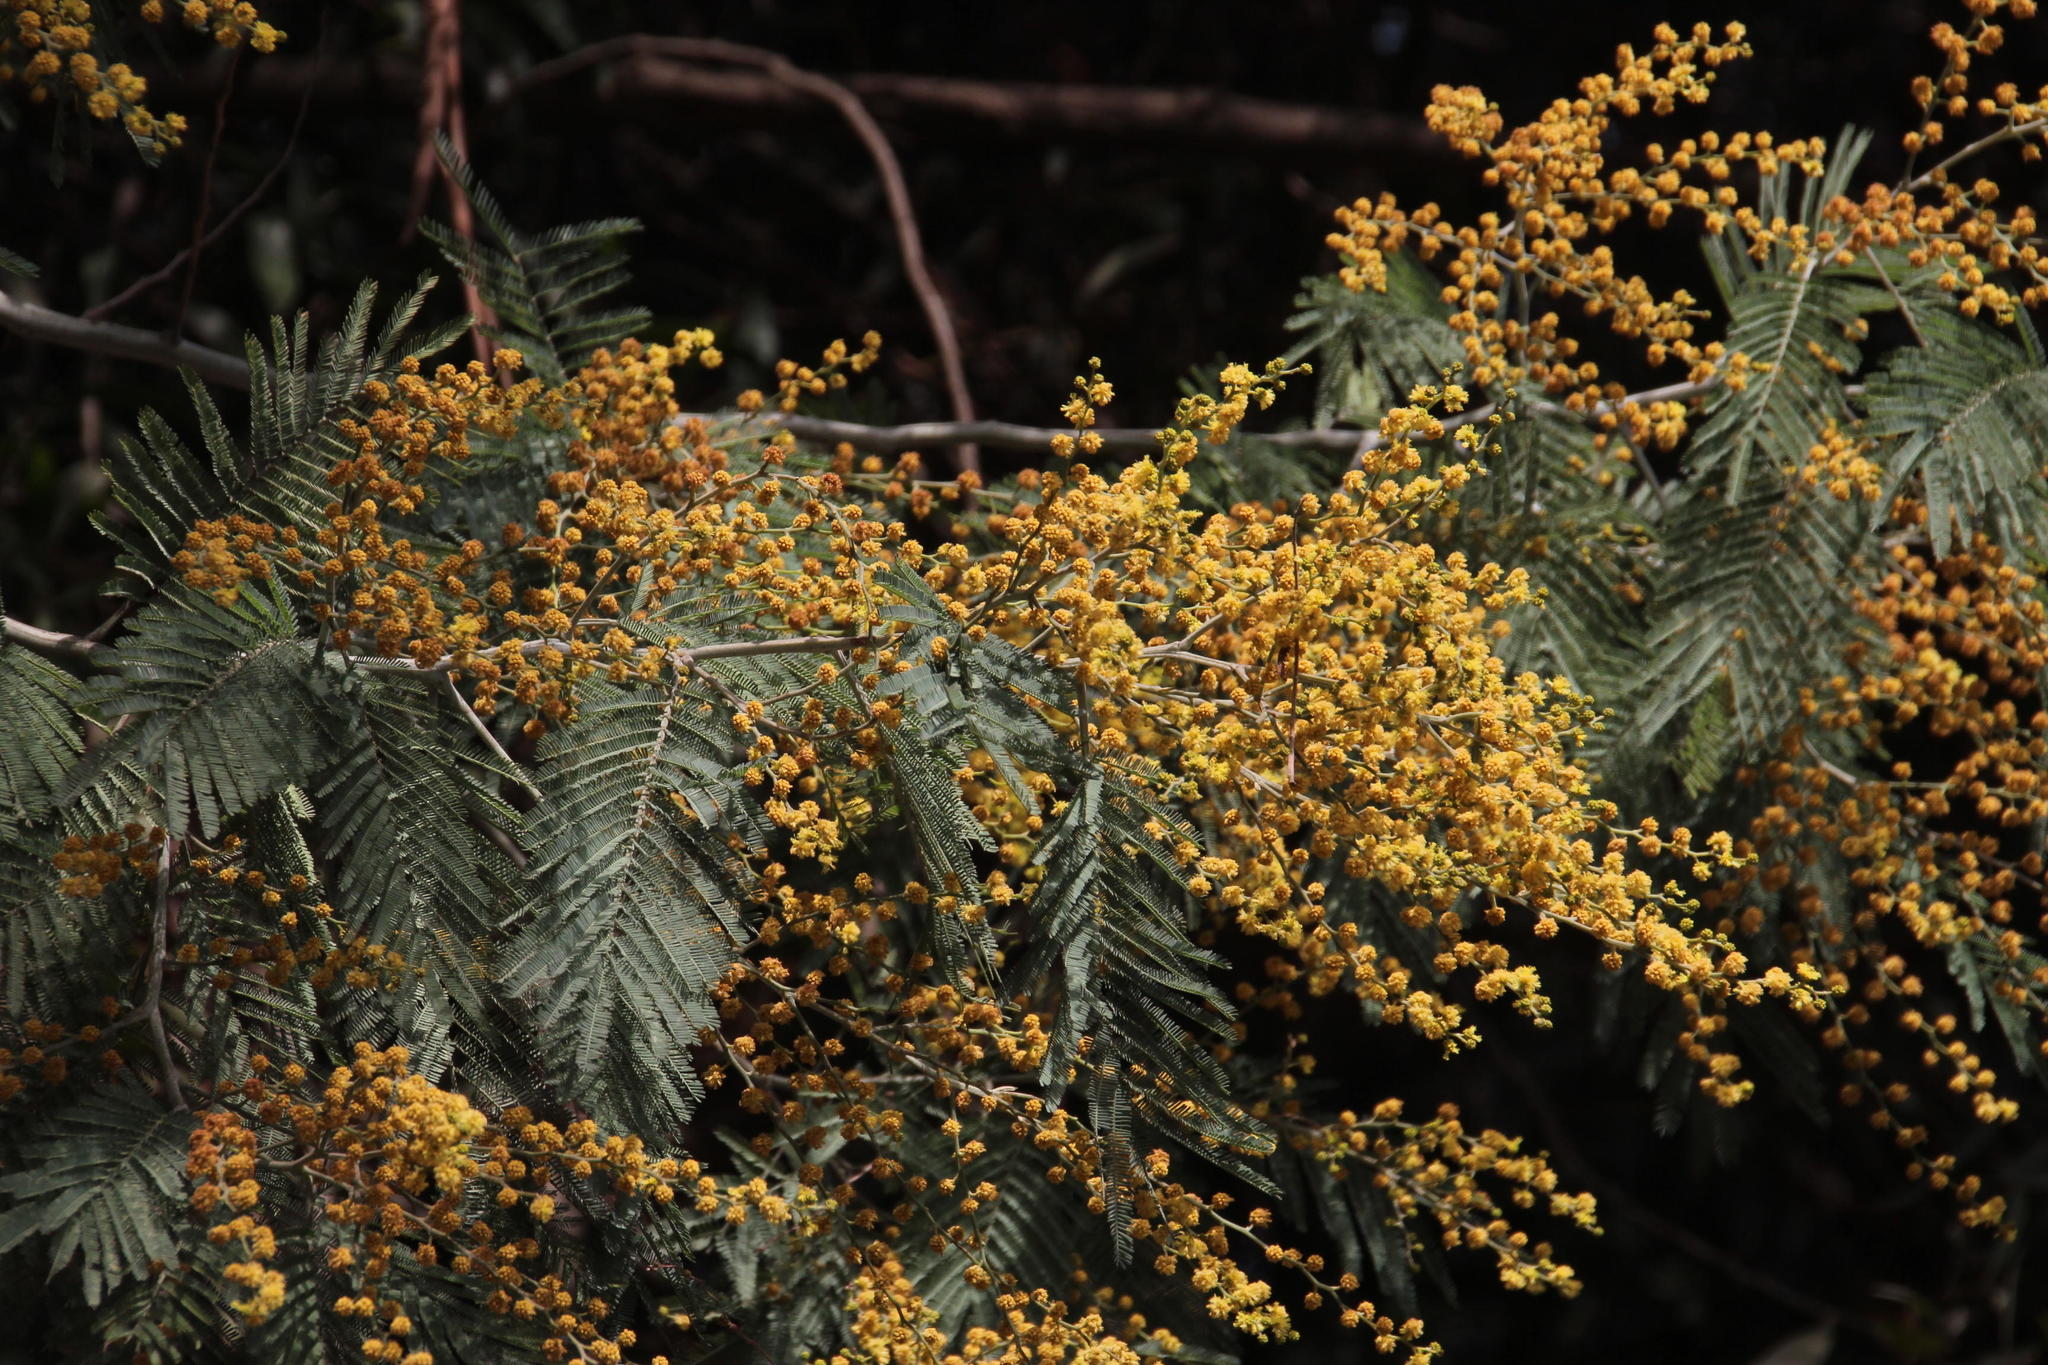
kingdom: Plantae
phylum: Tracheophyta
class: Magnoliopsida
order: Fabales
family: Fabaceae
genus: Acacia
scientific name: Acacia dealbata
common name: Silver wattle
